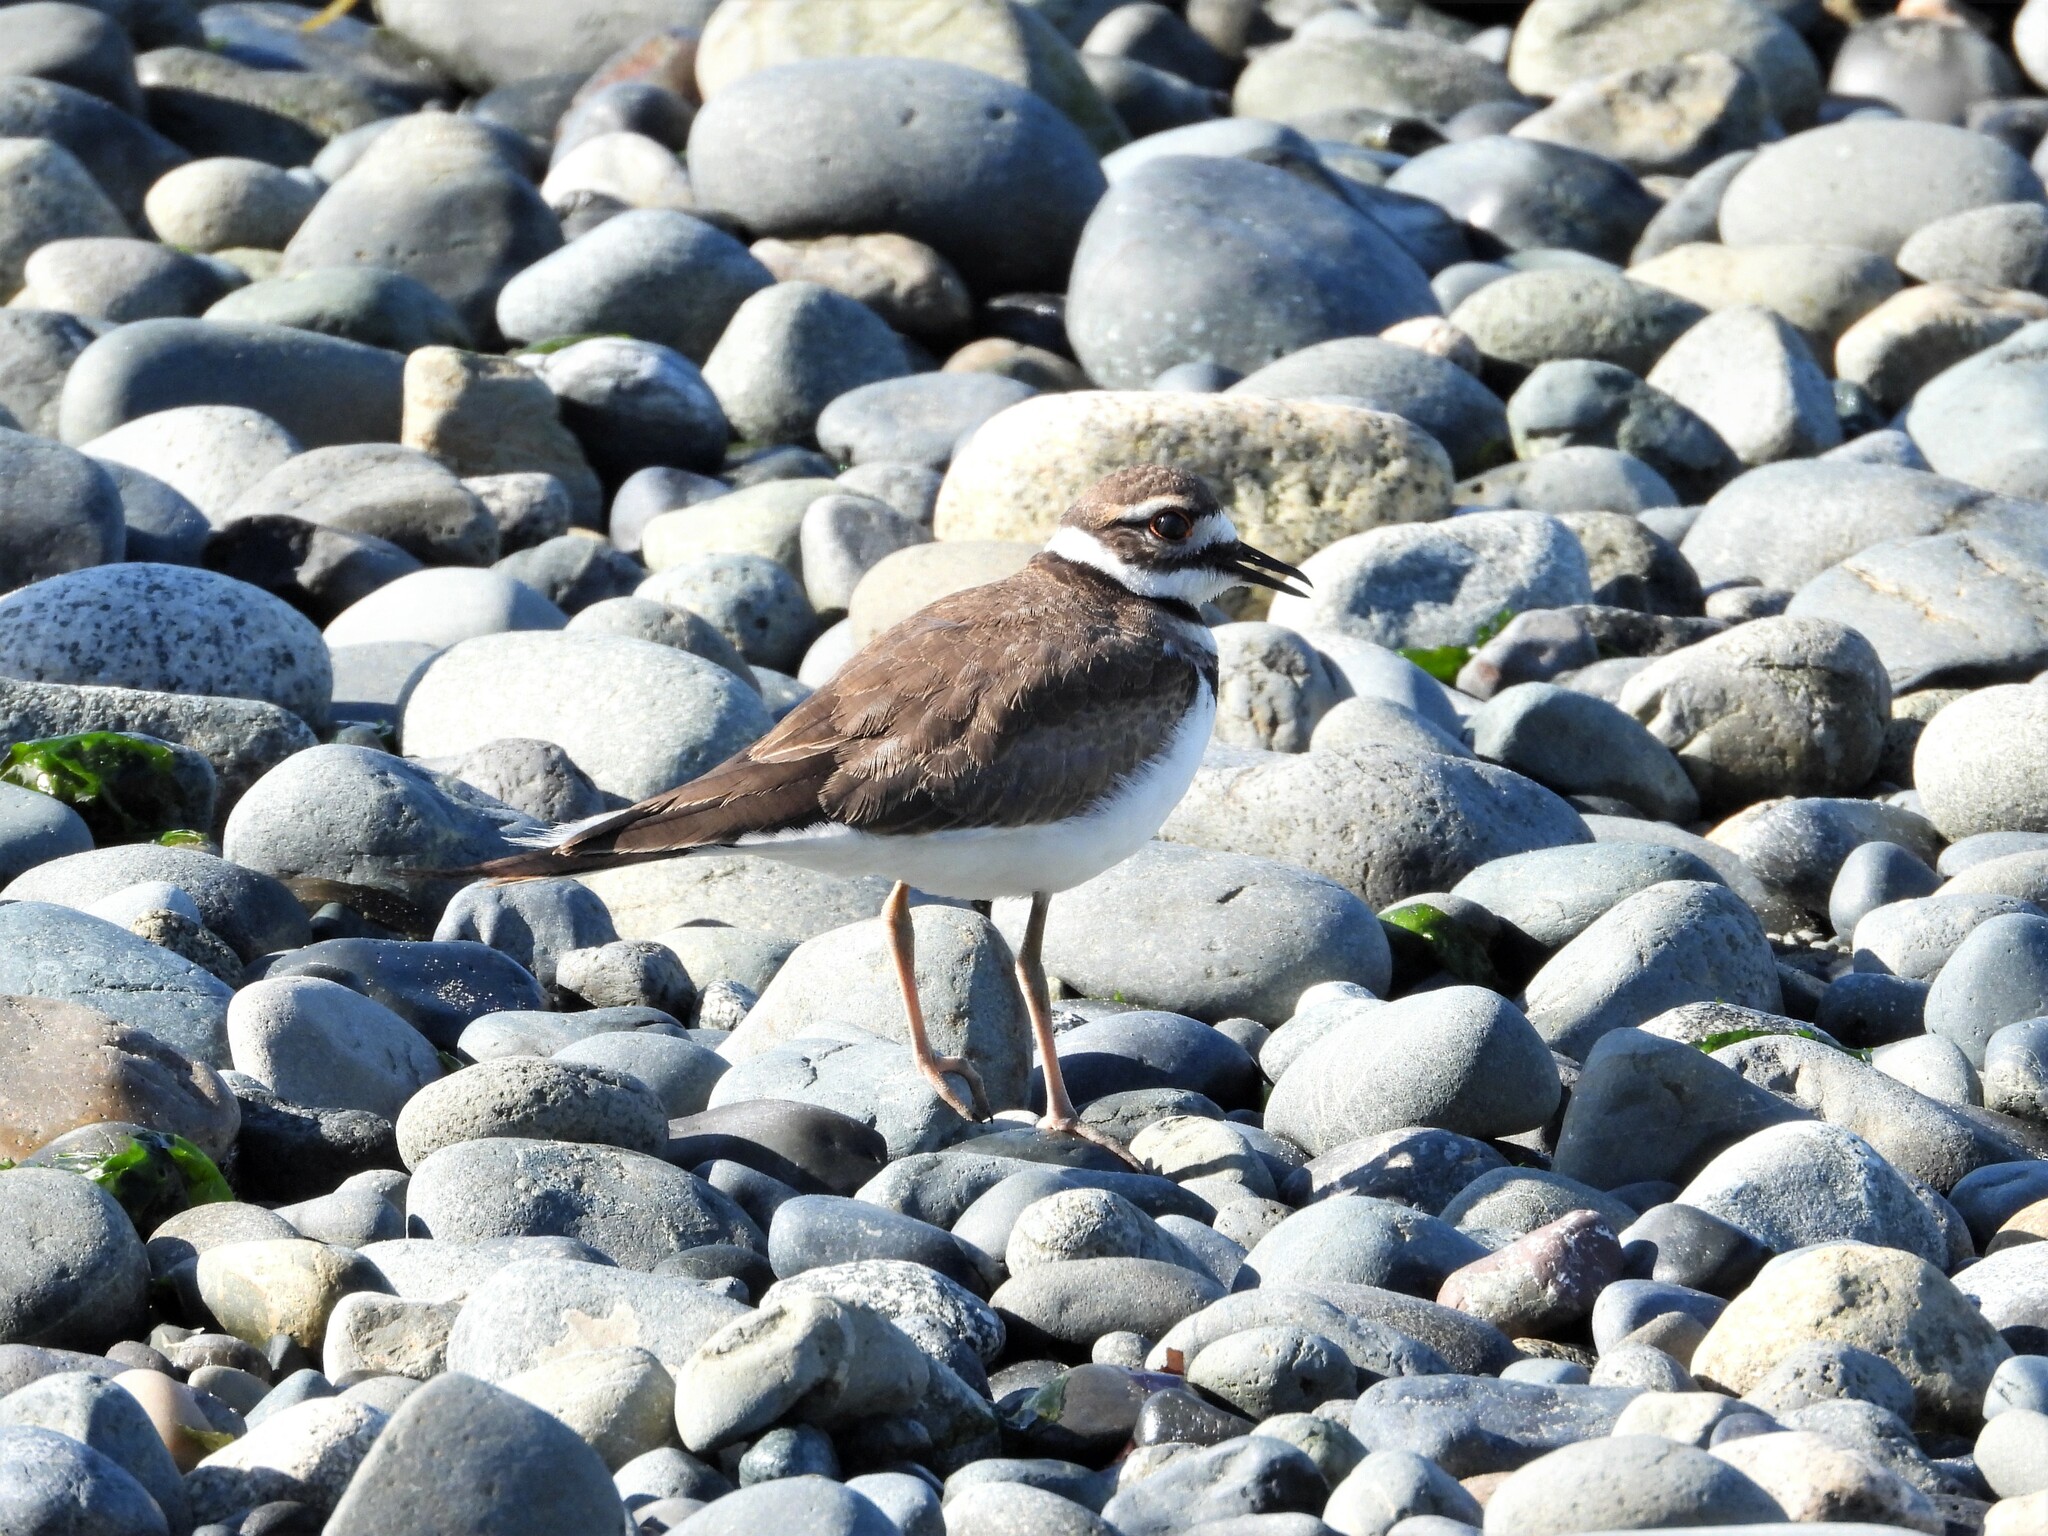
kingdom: Animalia
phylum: Chordata
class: Aves
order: Charadriiformes
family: Charadriidae
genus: Charadrius
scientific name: Charadrius vociferus
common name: Killdeer
